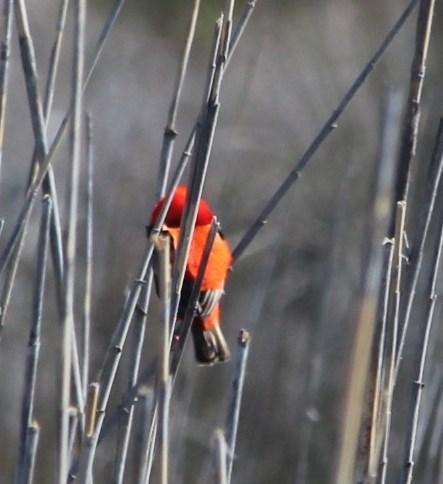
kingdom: Animalia
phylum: Chordata
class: Aves
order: Passeriformes
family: Ploceidae
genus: Euplectes
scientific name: Euplectes orix
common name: Southern red bishop
